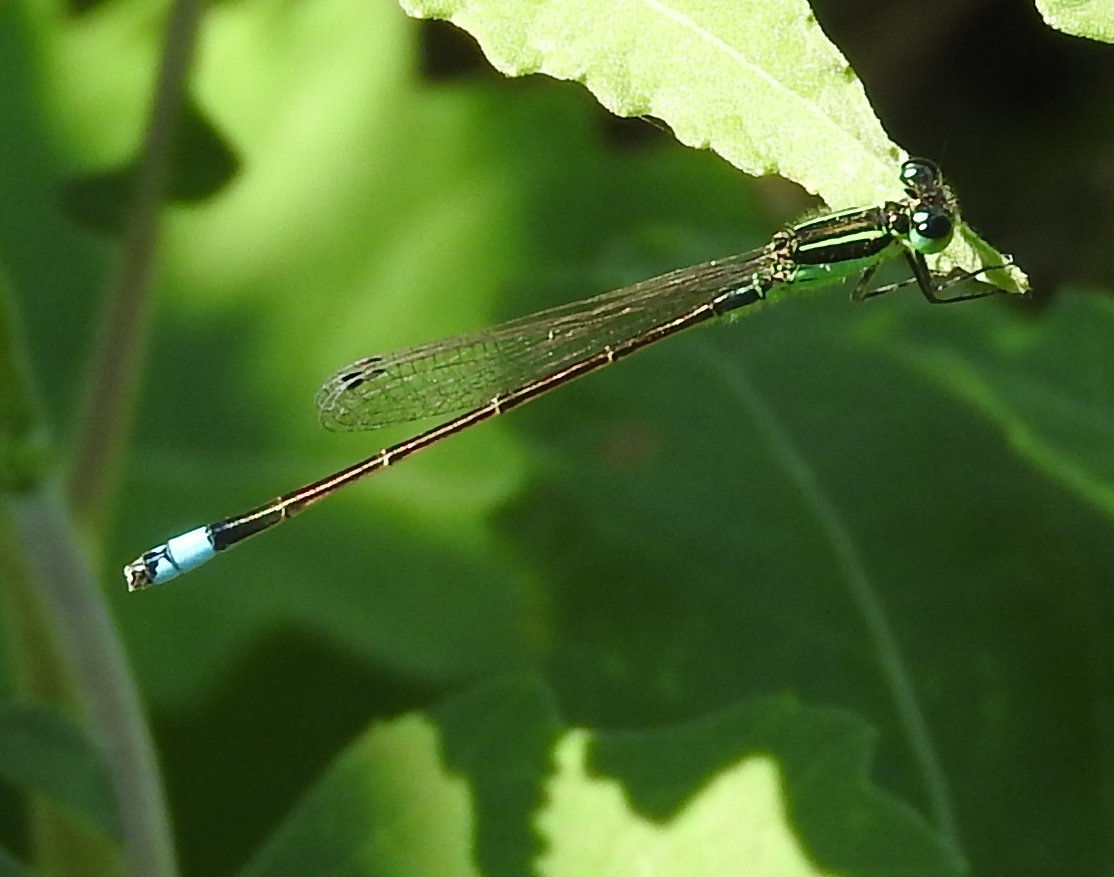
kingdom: Animalia
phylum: Arthropoda
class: Insecta
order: Odonata
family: Coenagrionidae
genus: Ischnura
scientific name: Ischnura ramburii
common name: Rambur's forktail
